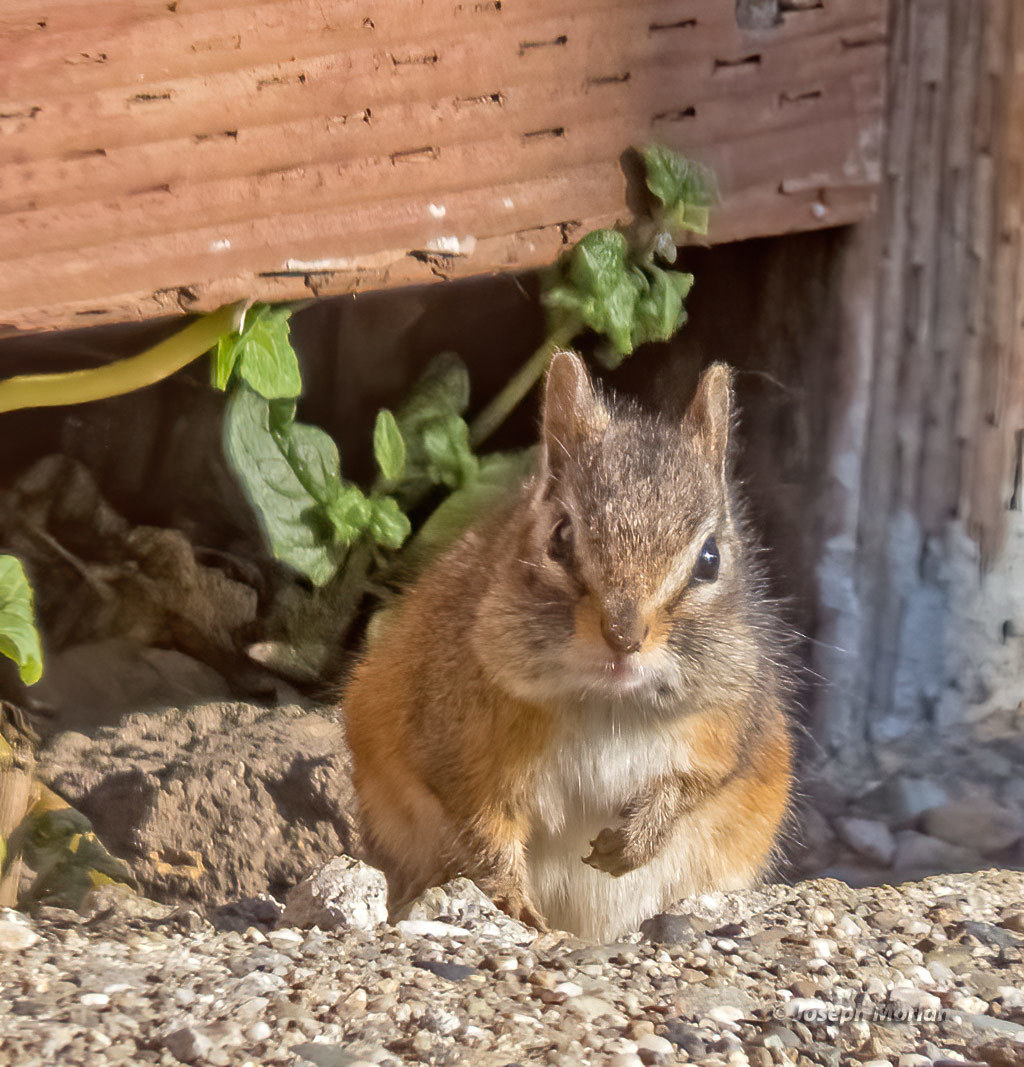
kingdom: Animalia
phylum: Chordata
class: Mammalia
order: Rodentia
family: Sciuridae
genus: Tamias
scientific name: Tamias merriami
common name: Merriam's chipmunk
